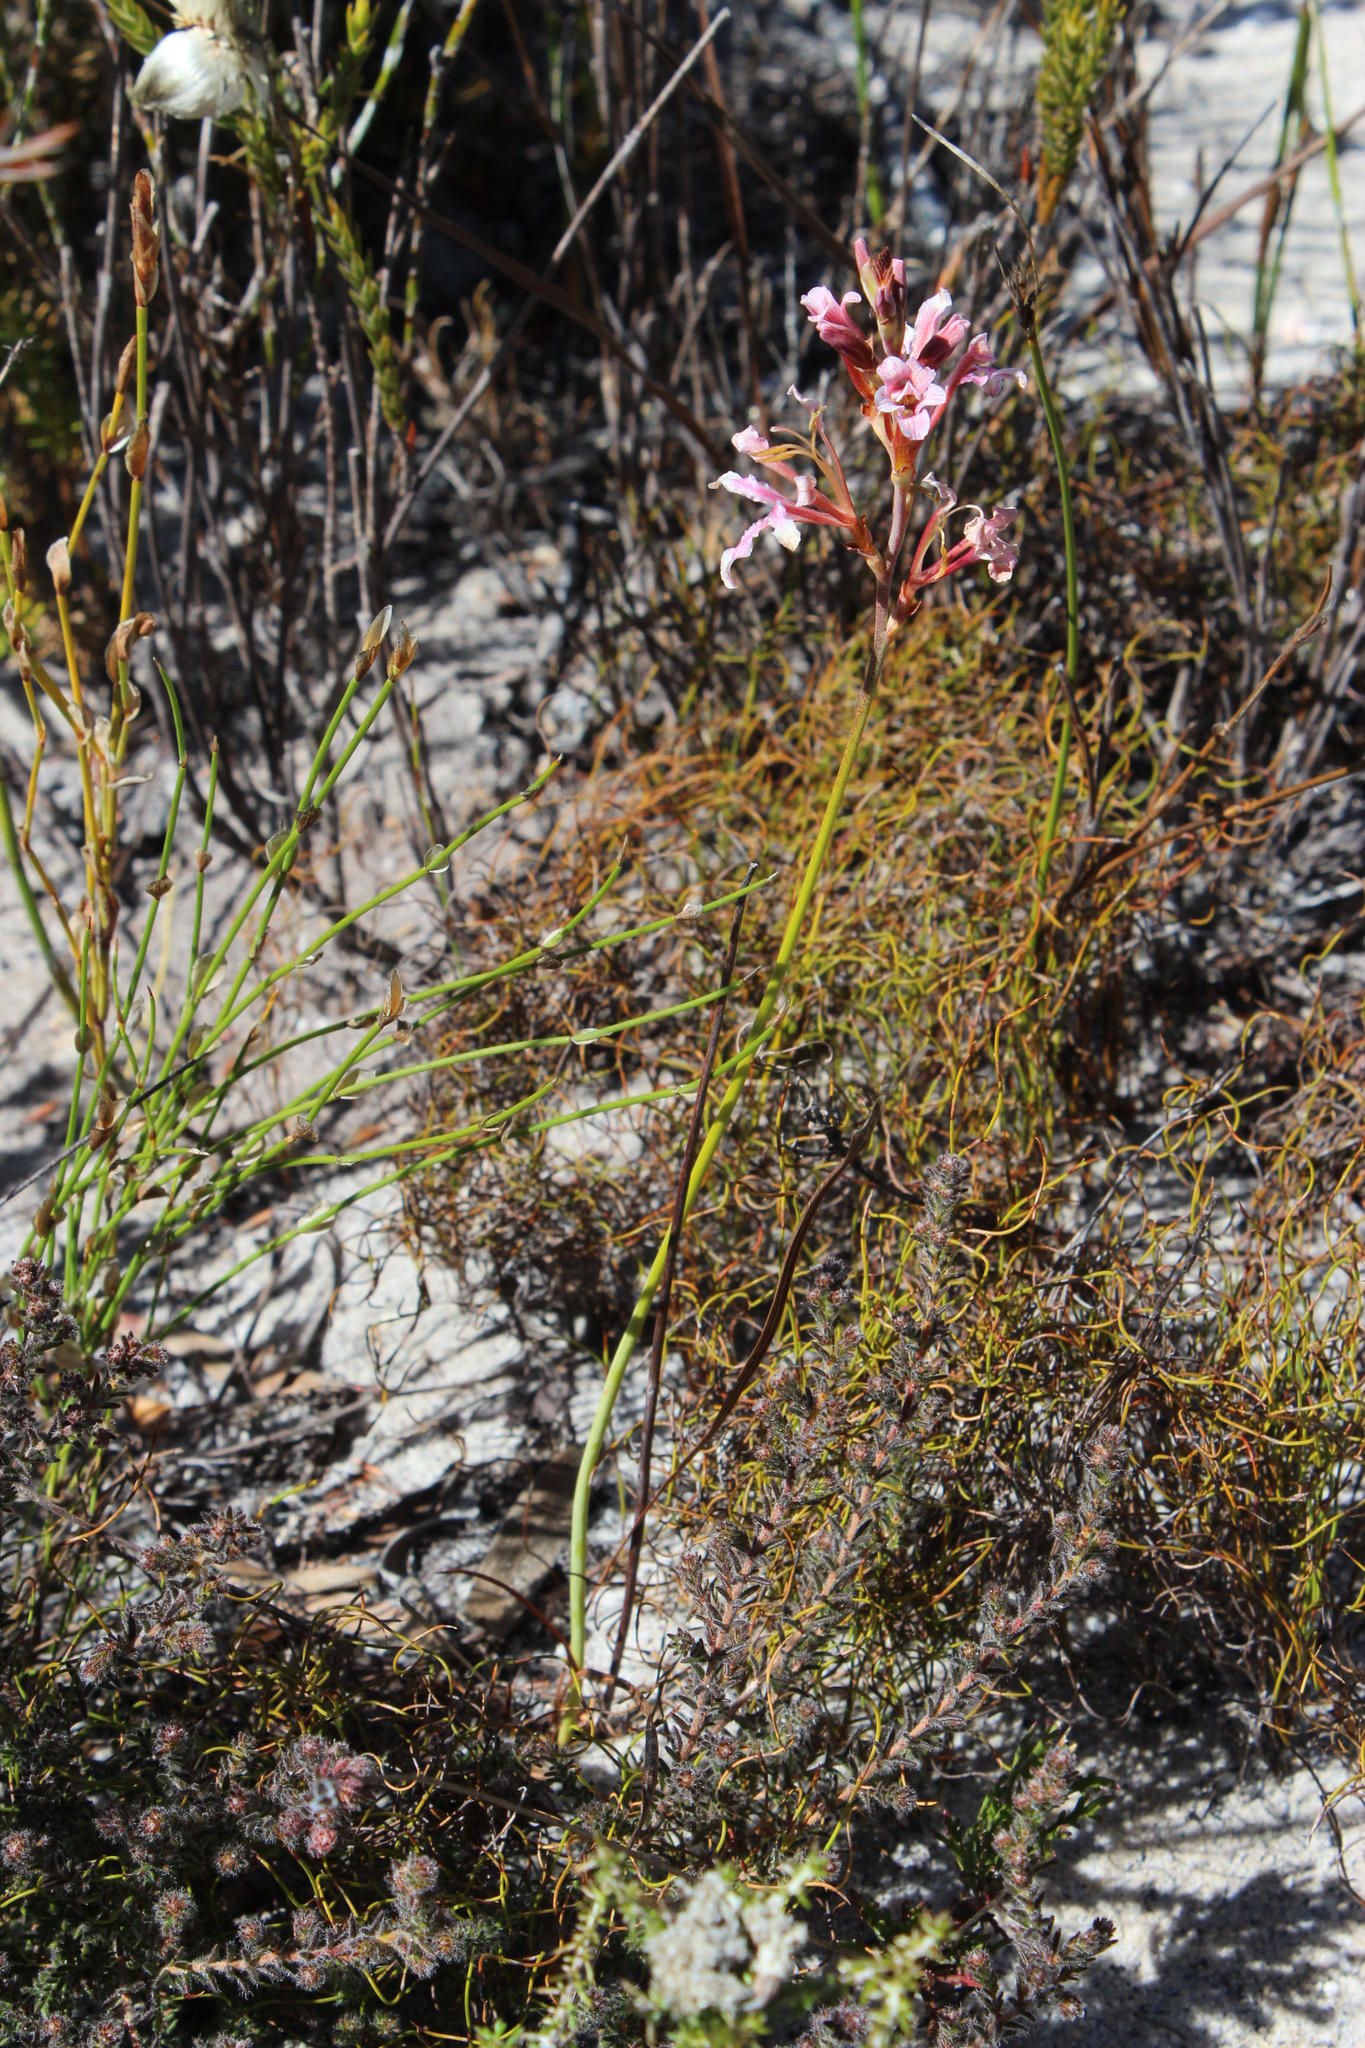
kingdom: Plantae
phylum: Tracheophyta
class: Liliopsida
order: Asparagales
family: Iridaceae
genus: Tritoniopsis
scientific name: Tritoniopsis dodii
